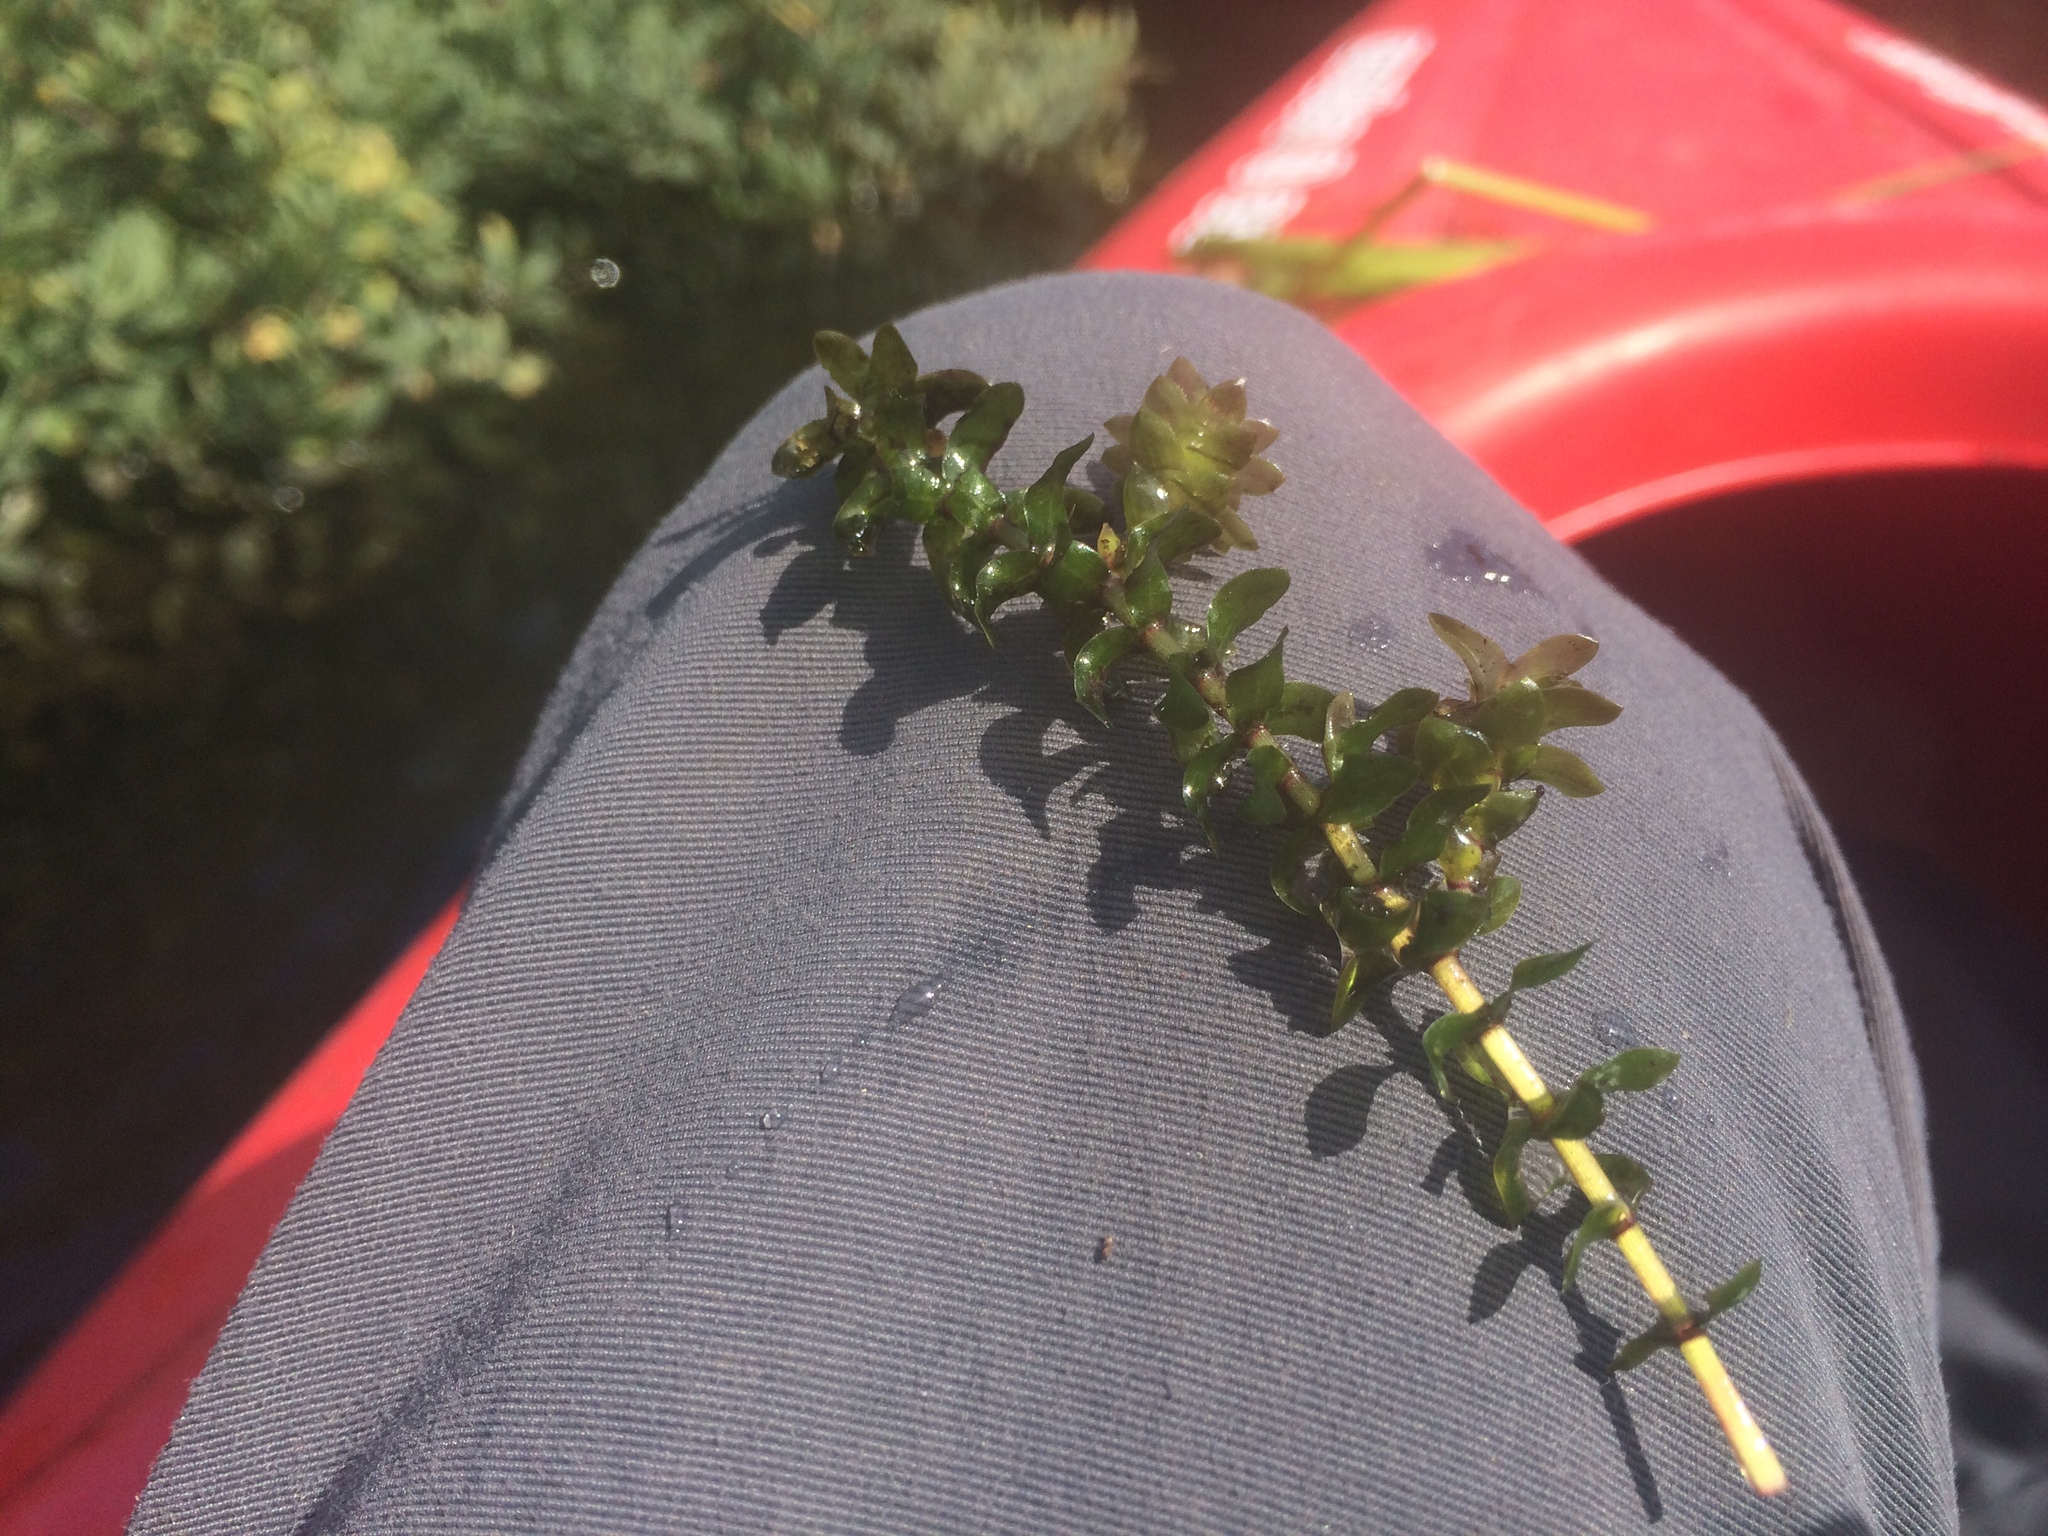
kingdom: Plantae
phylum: Tracheophyta
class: Liliopsida
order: Alismatales
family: Hydrocharitaceae
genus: Elodea
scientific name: Elodea canadensis
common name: Canadian waterweed
